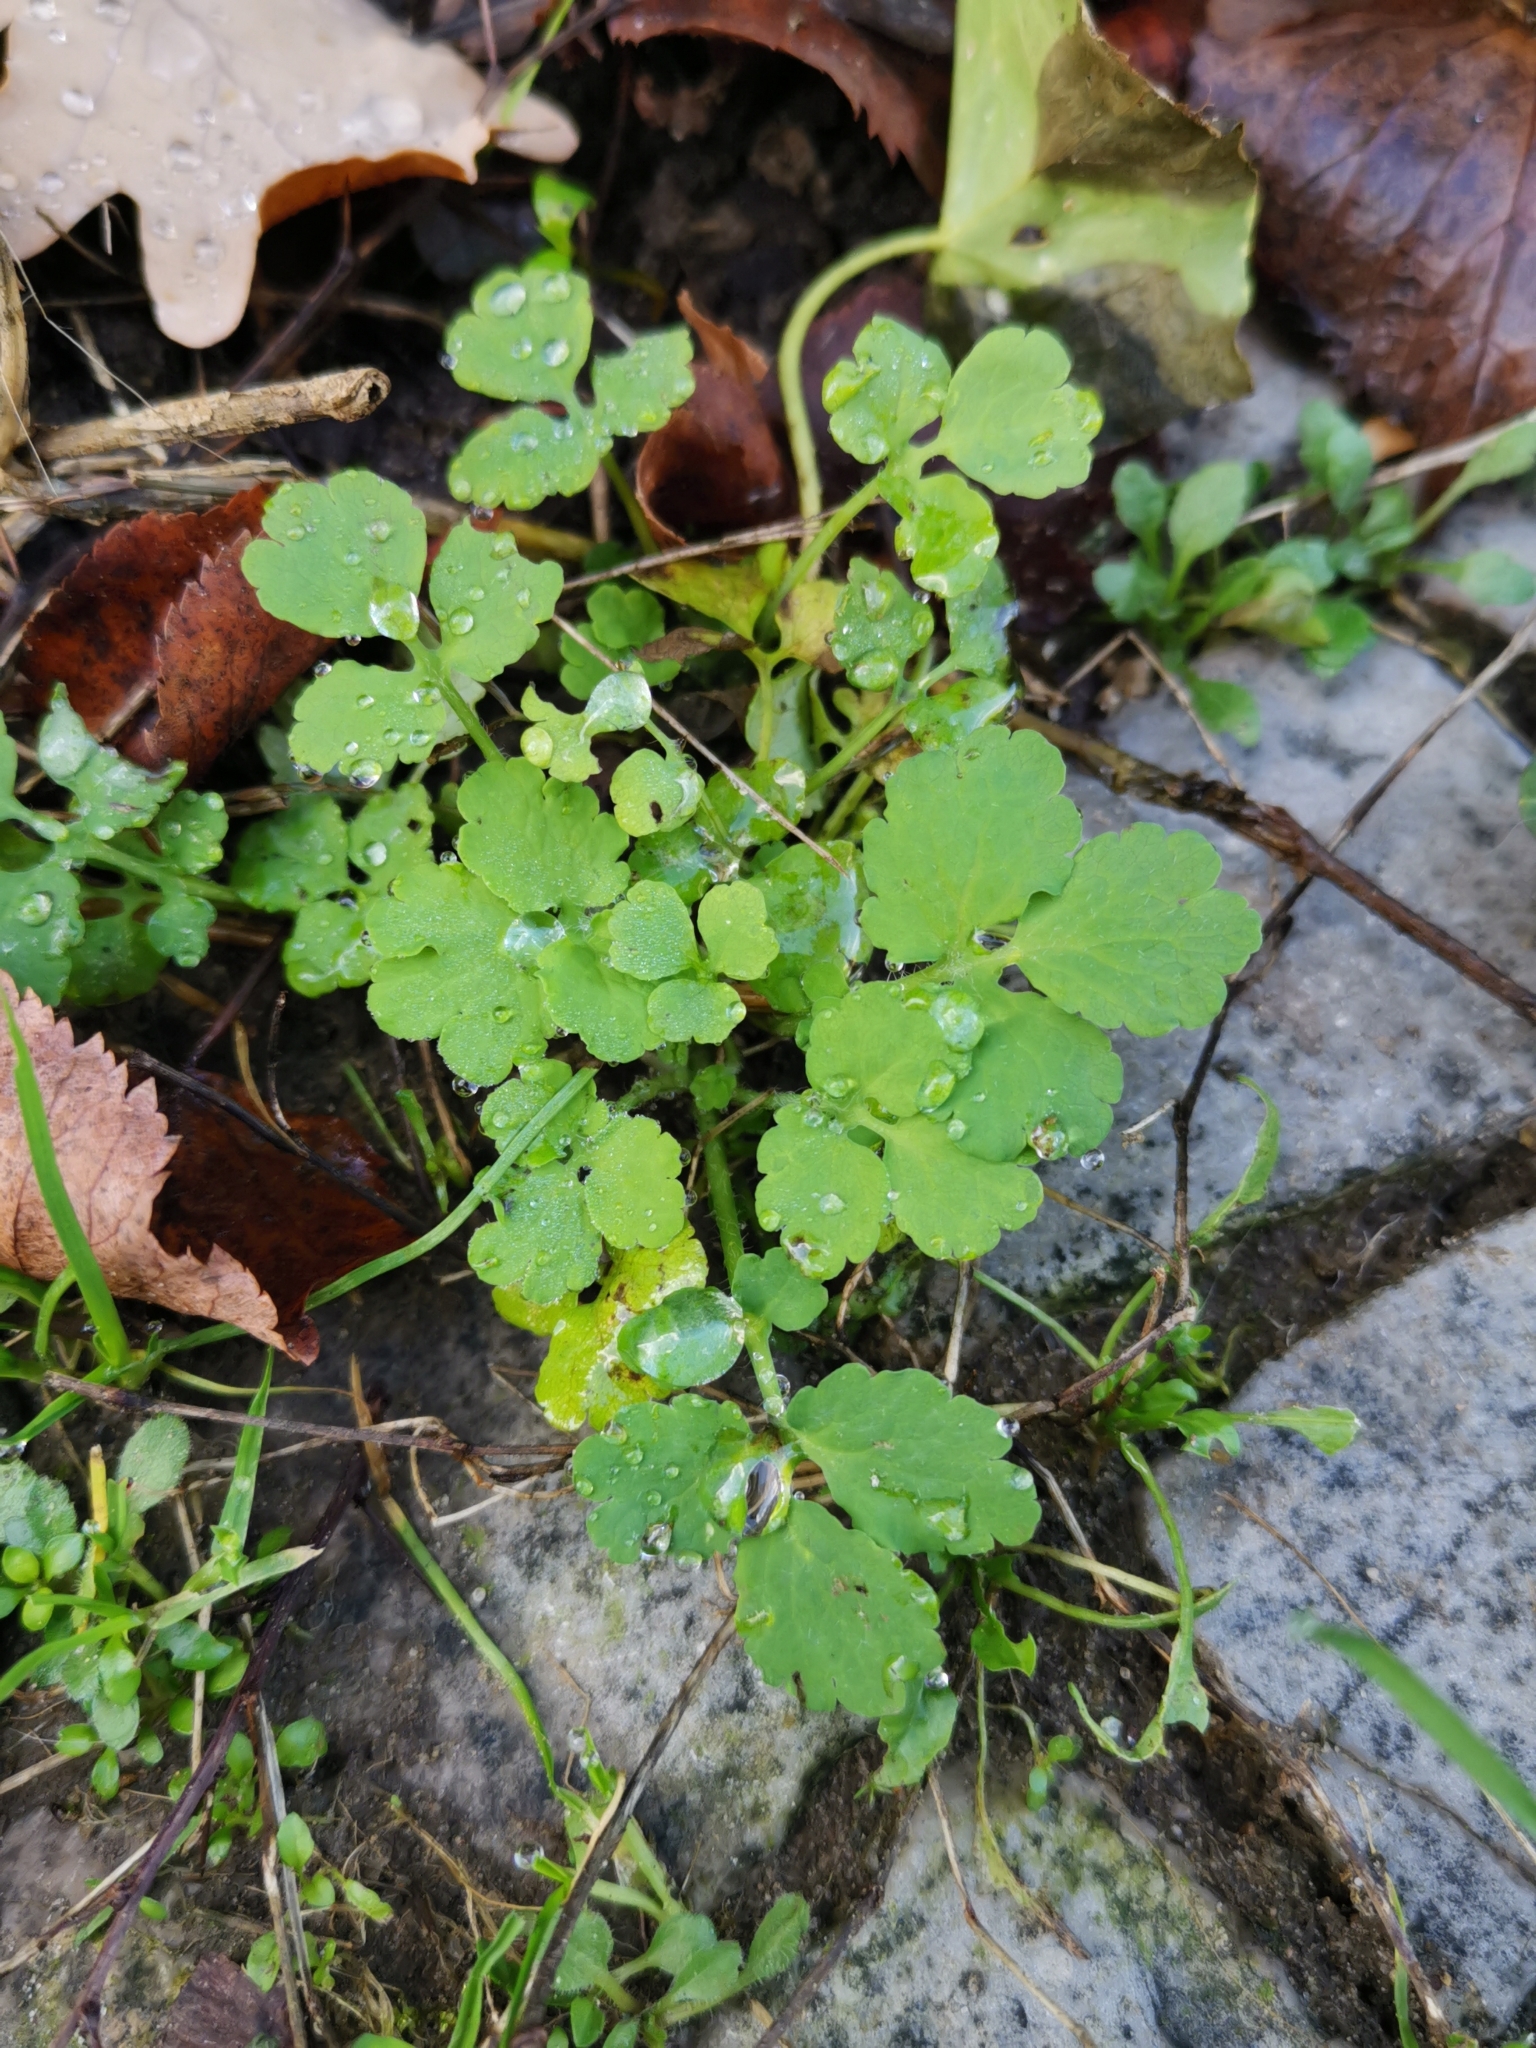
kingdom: Plantae
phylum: Tracheophyta
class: Magnoliopsida
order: Ranunculales
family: Papaveraceae
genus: Chelidonium
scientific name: Chelidonium majus
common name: Greater celandine
